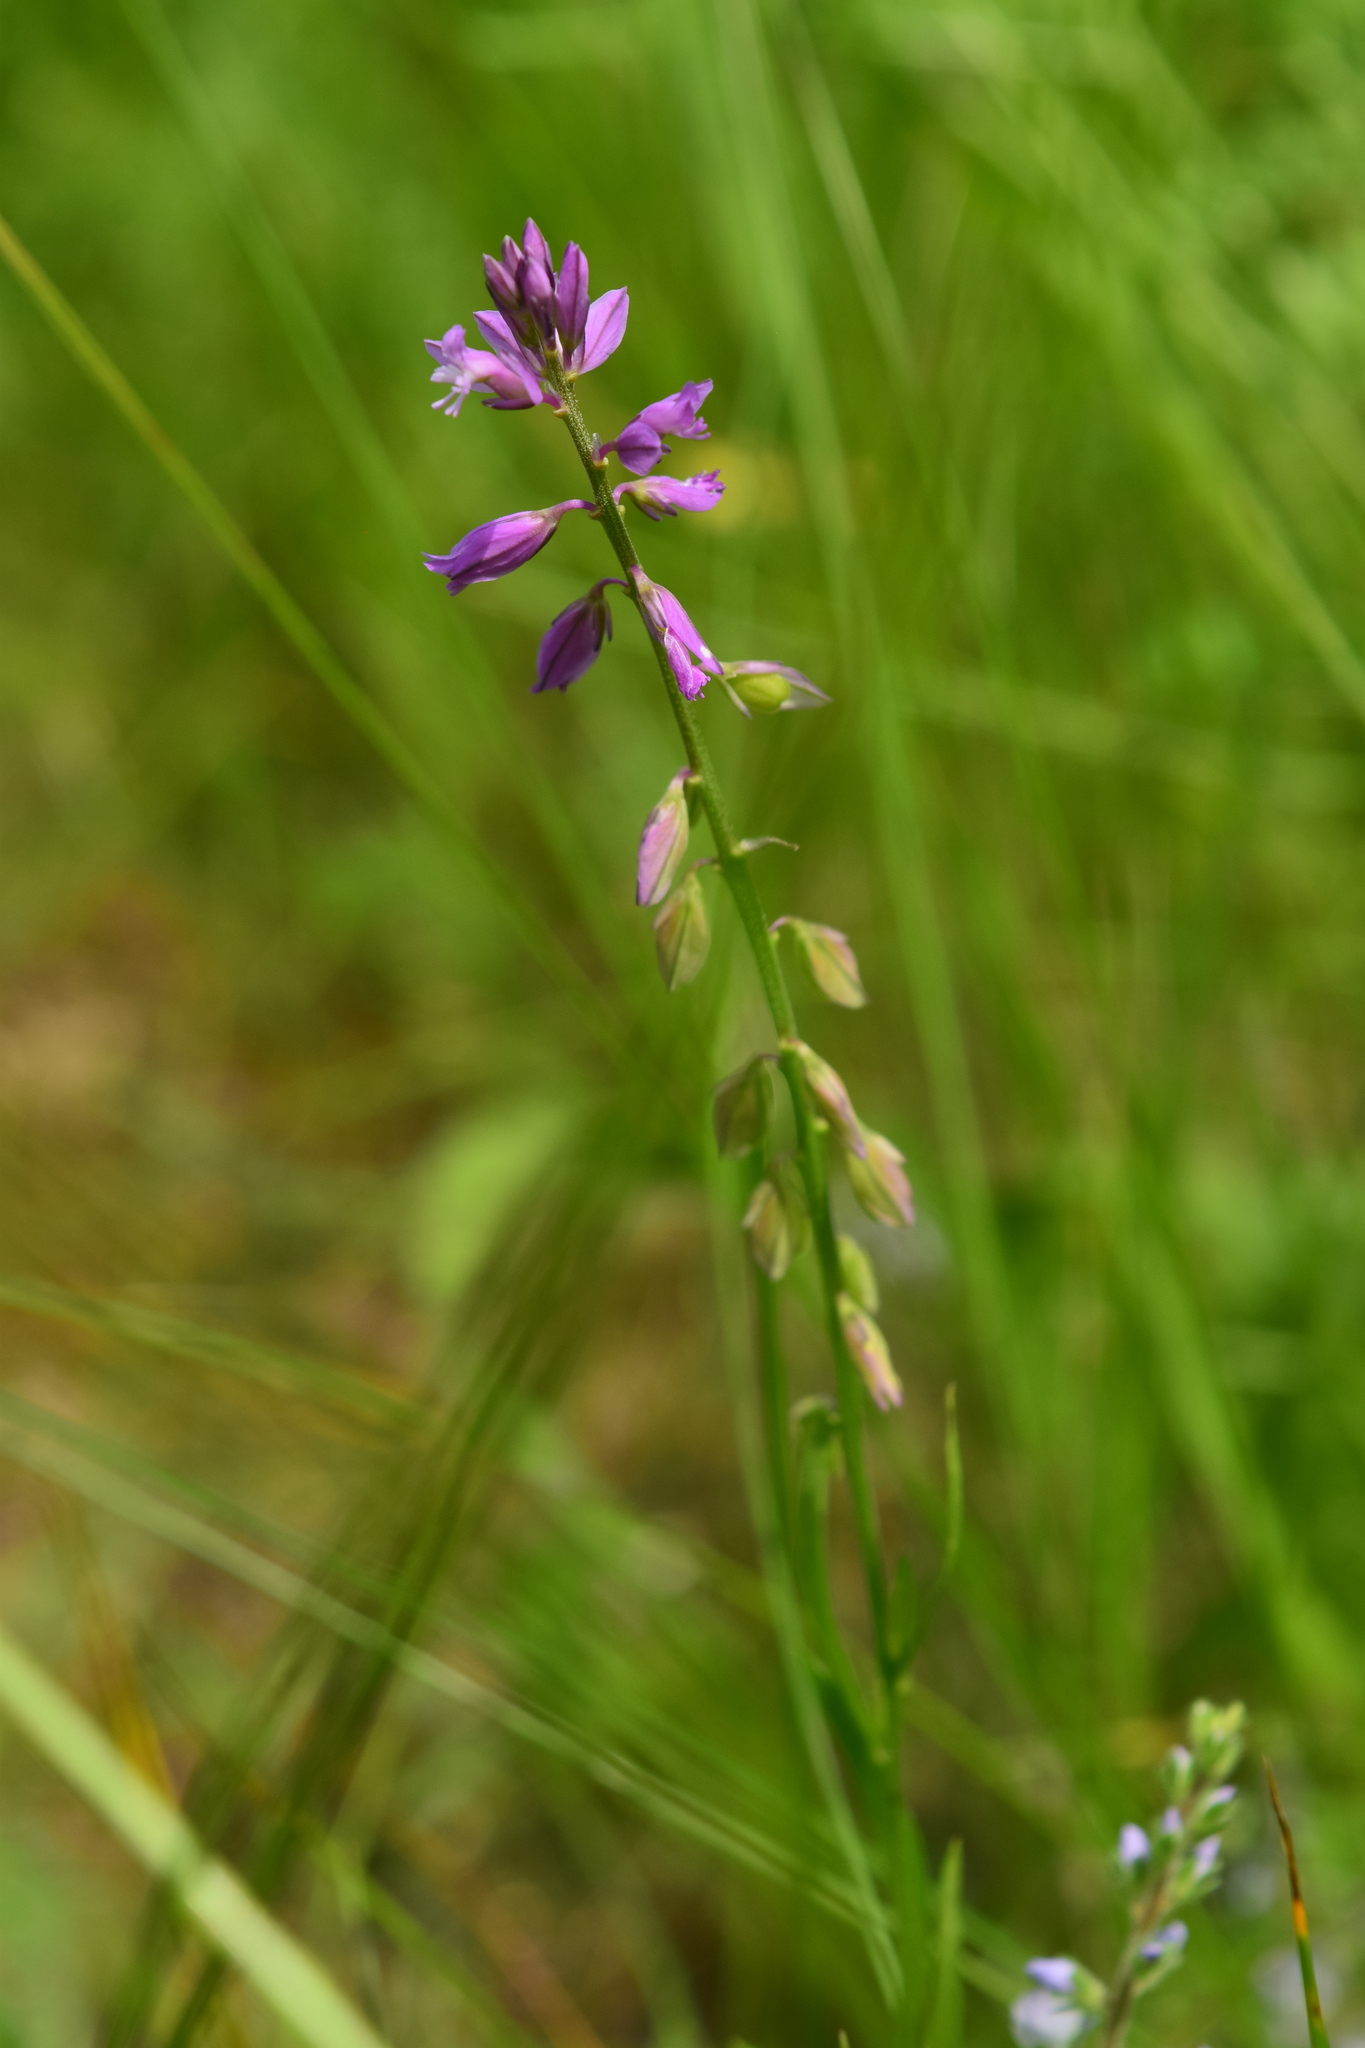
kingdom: Plantae
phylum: Tracheophyta
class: Magnoliopsida
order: Fabales
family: Polygalaceae
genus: Polygala
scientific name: Polygala comosa
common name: Tufted milkwort
